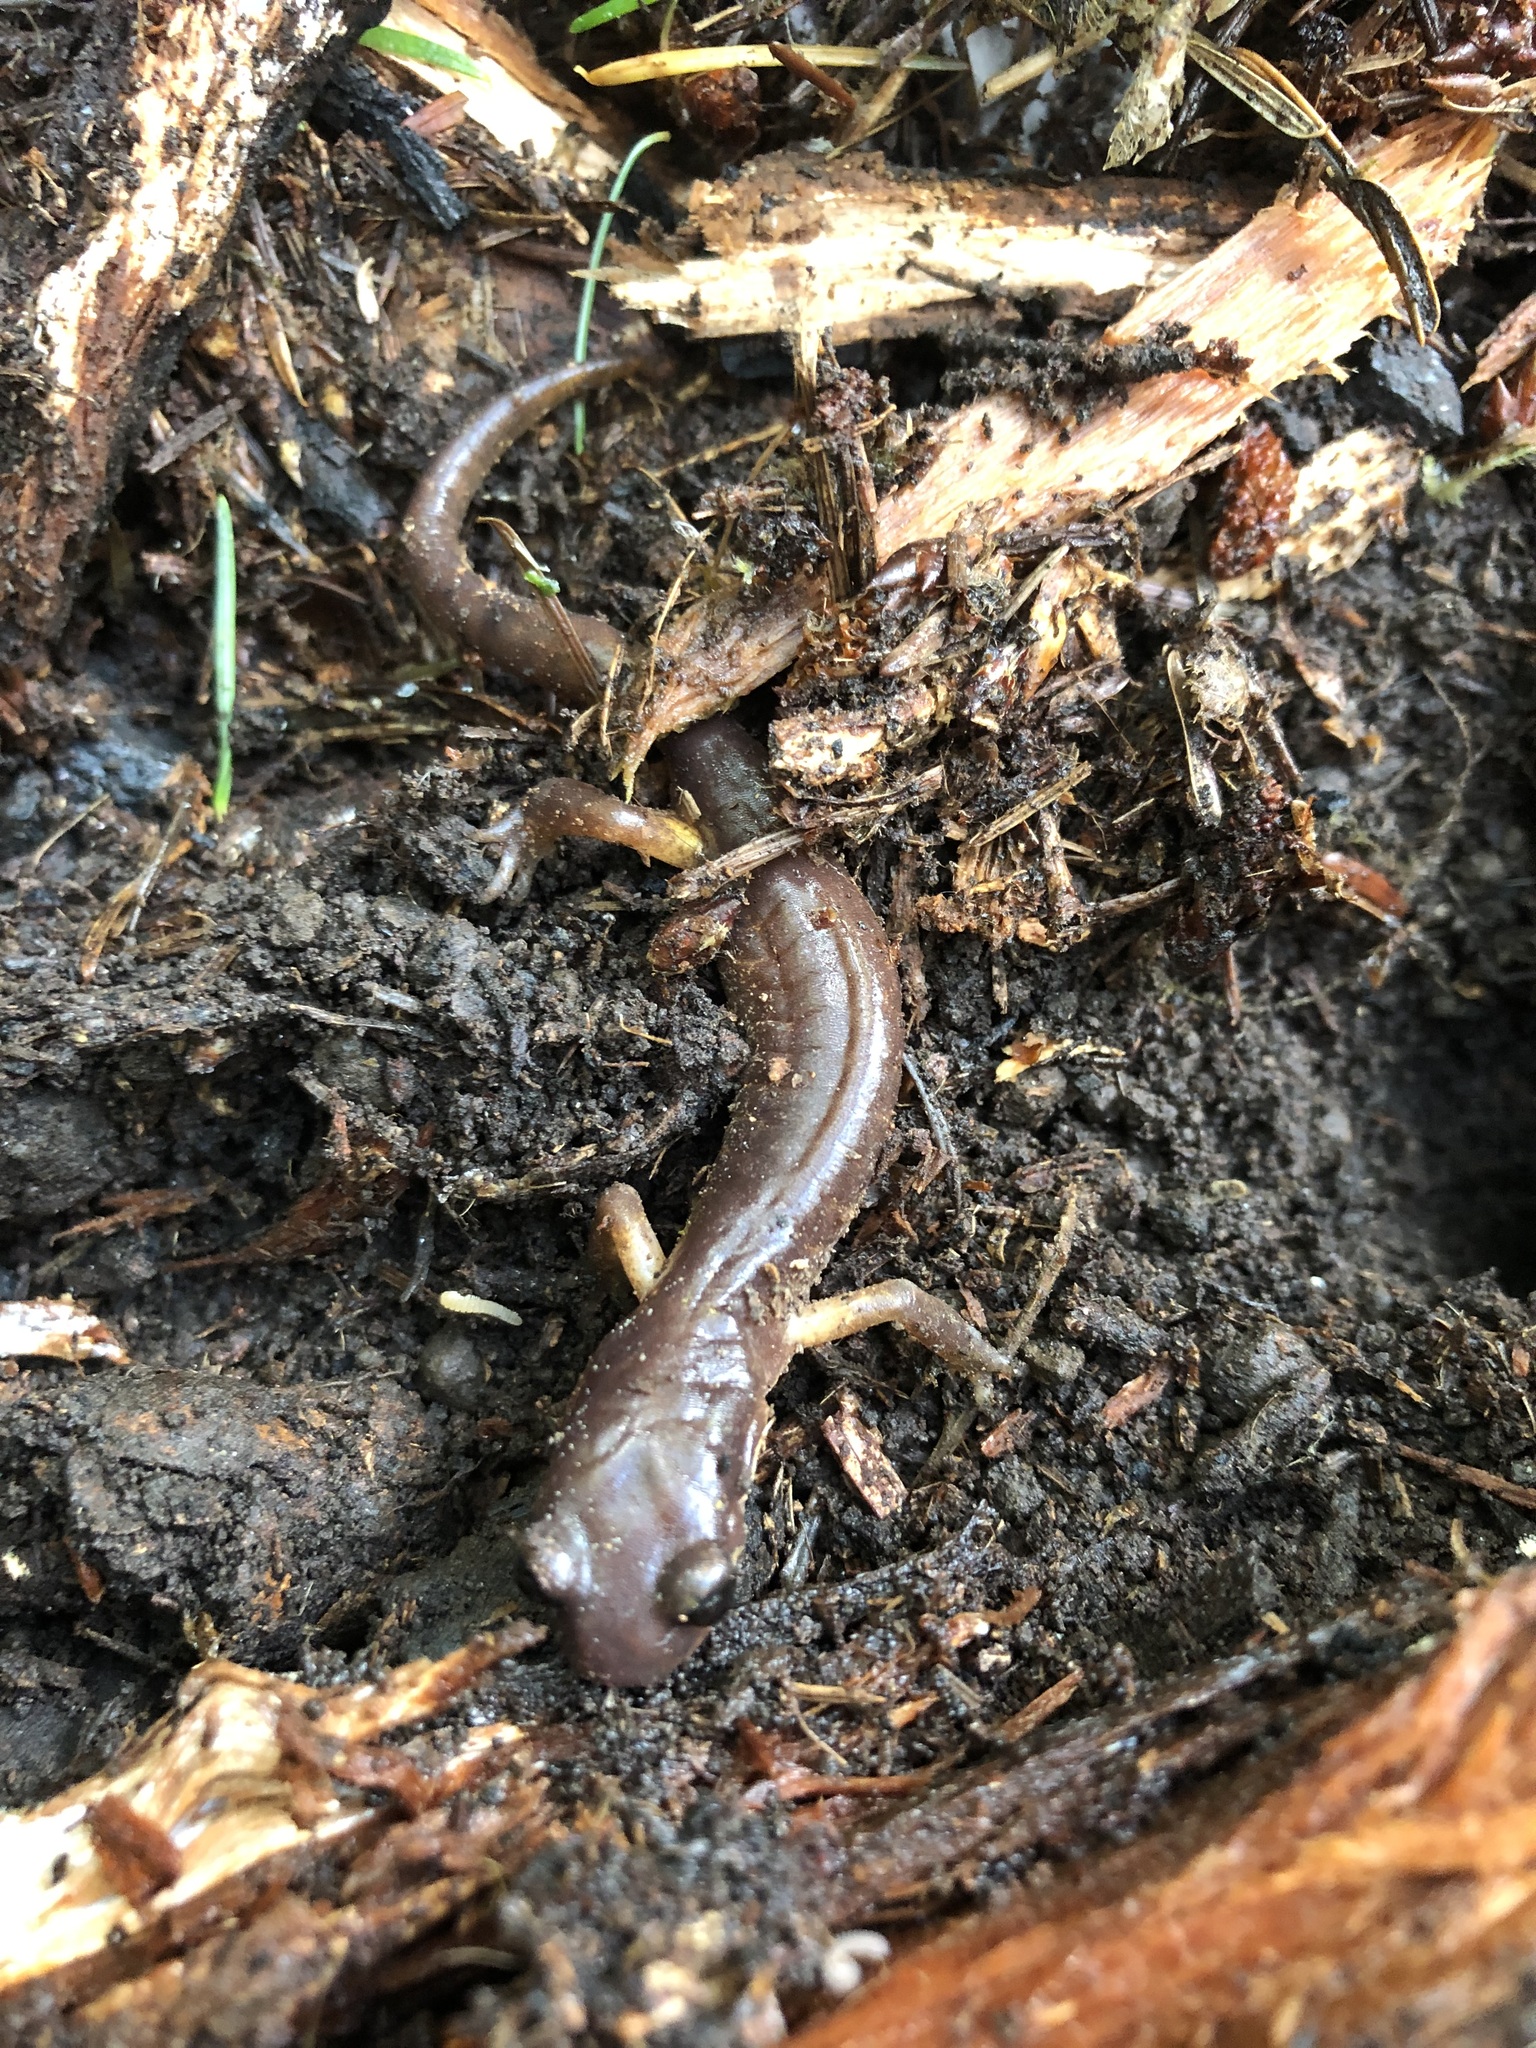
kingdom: Animalia
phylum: Chordata
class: Amphibia
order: Caudata
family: Plethodontidae
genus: Ensatina
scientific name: Ensatina eschscholtzii
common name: Ensatina
